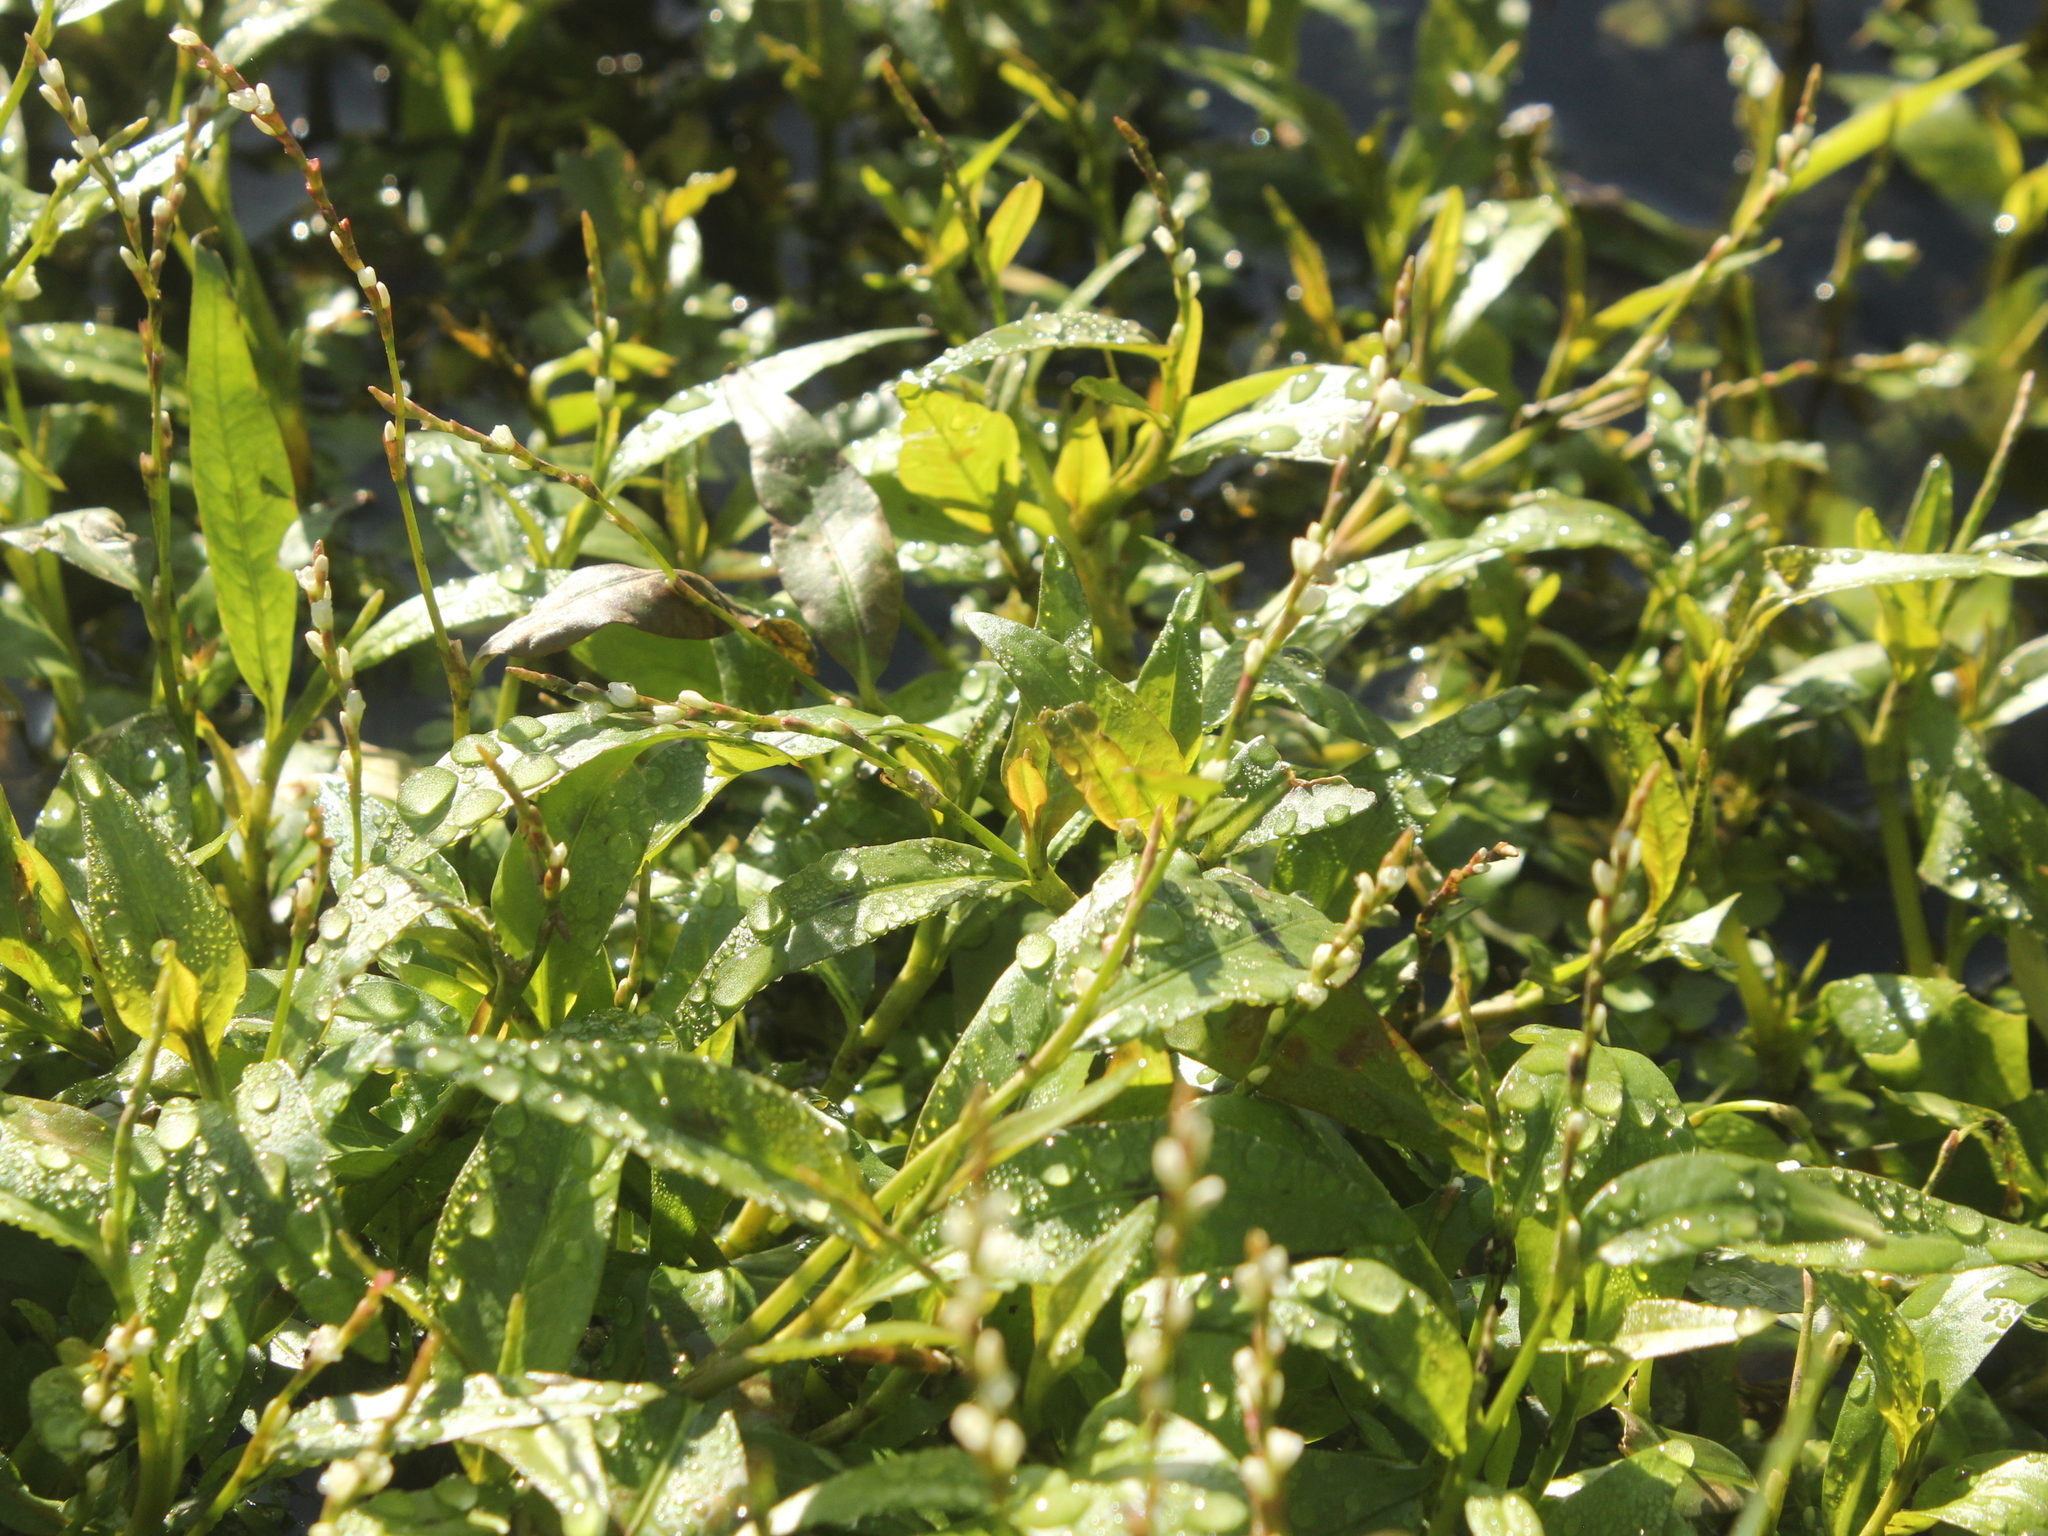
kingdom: Plantae
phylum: Tracheophyta
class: Magnoliopsida
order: Caryophyllales
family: Polygonaceae
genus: Persicaria
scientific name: Persicaria hydropiper
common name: Water-pepper
